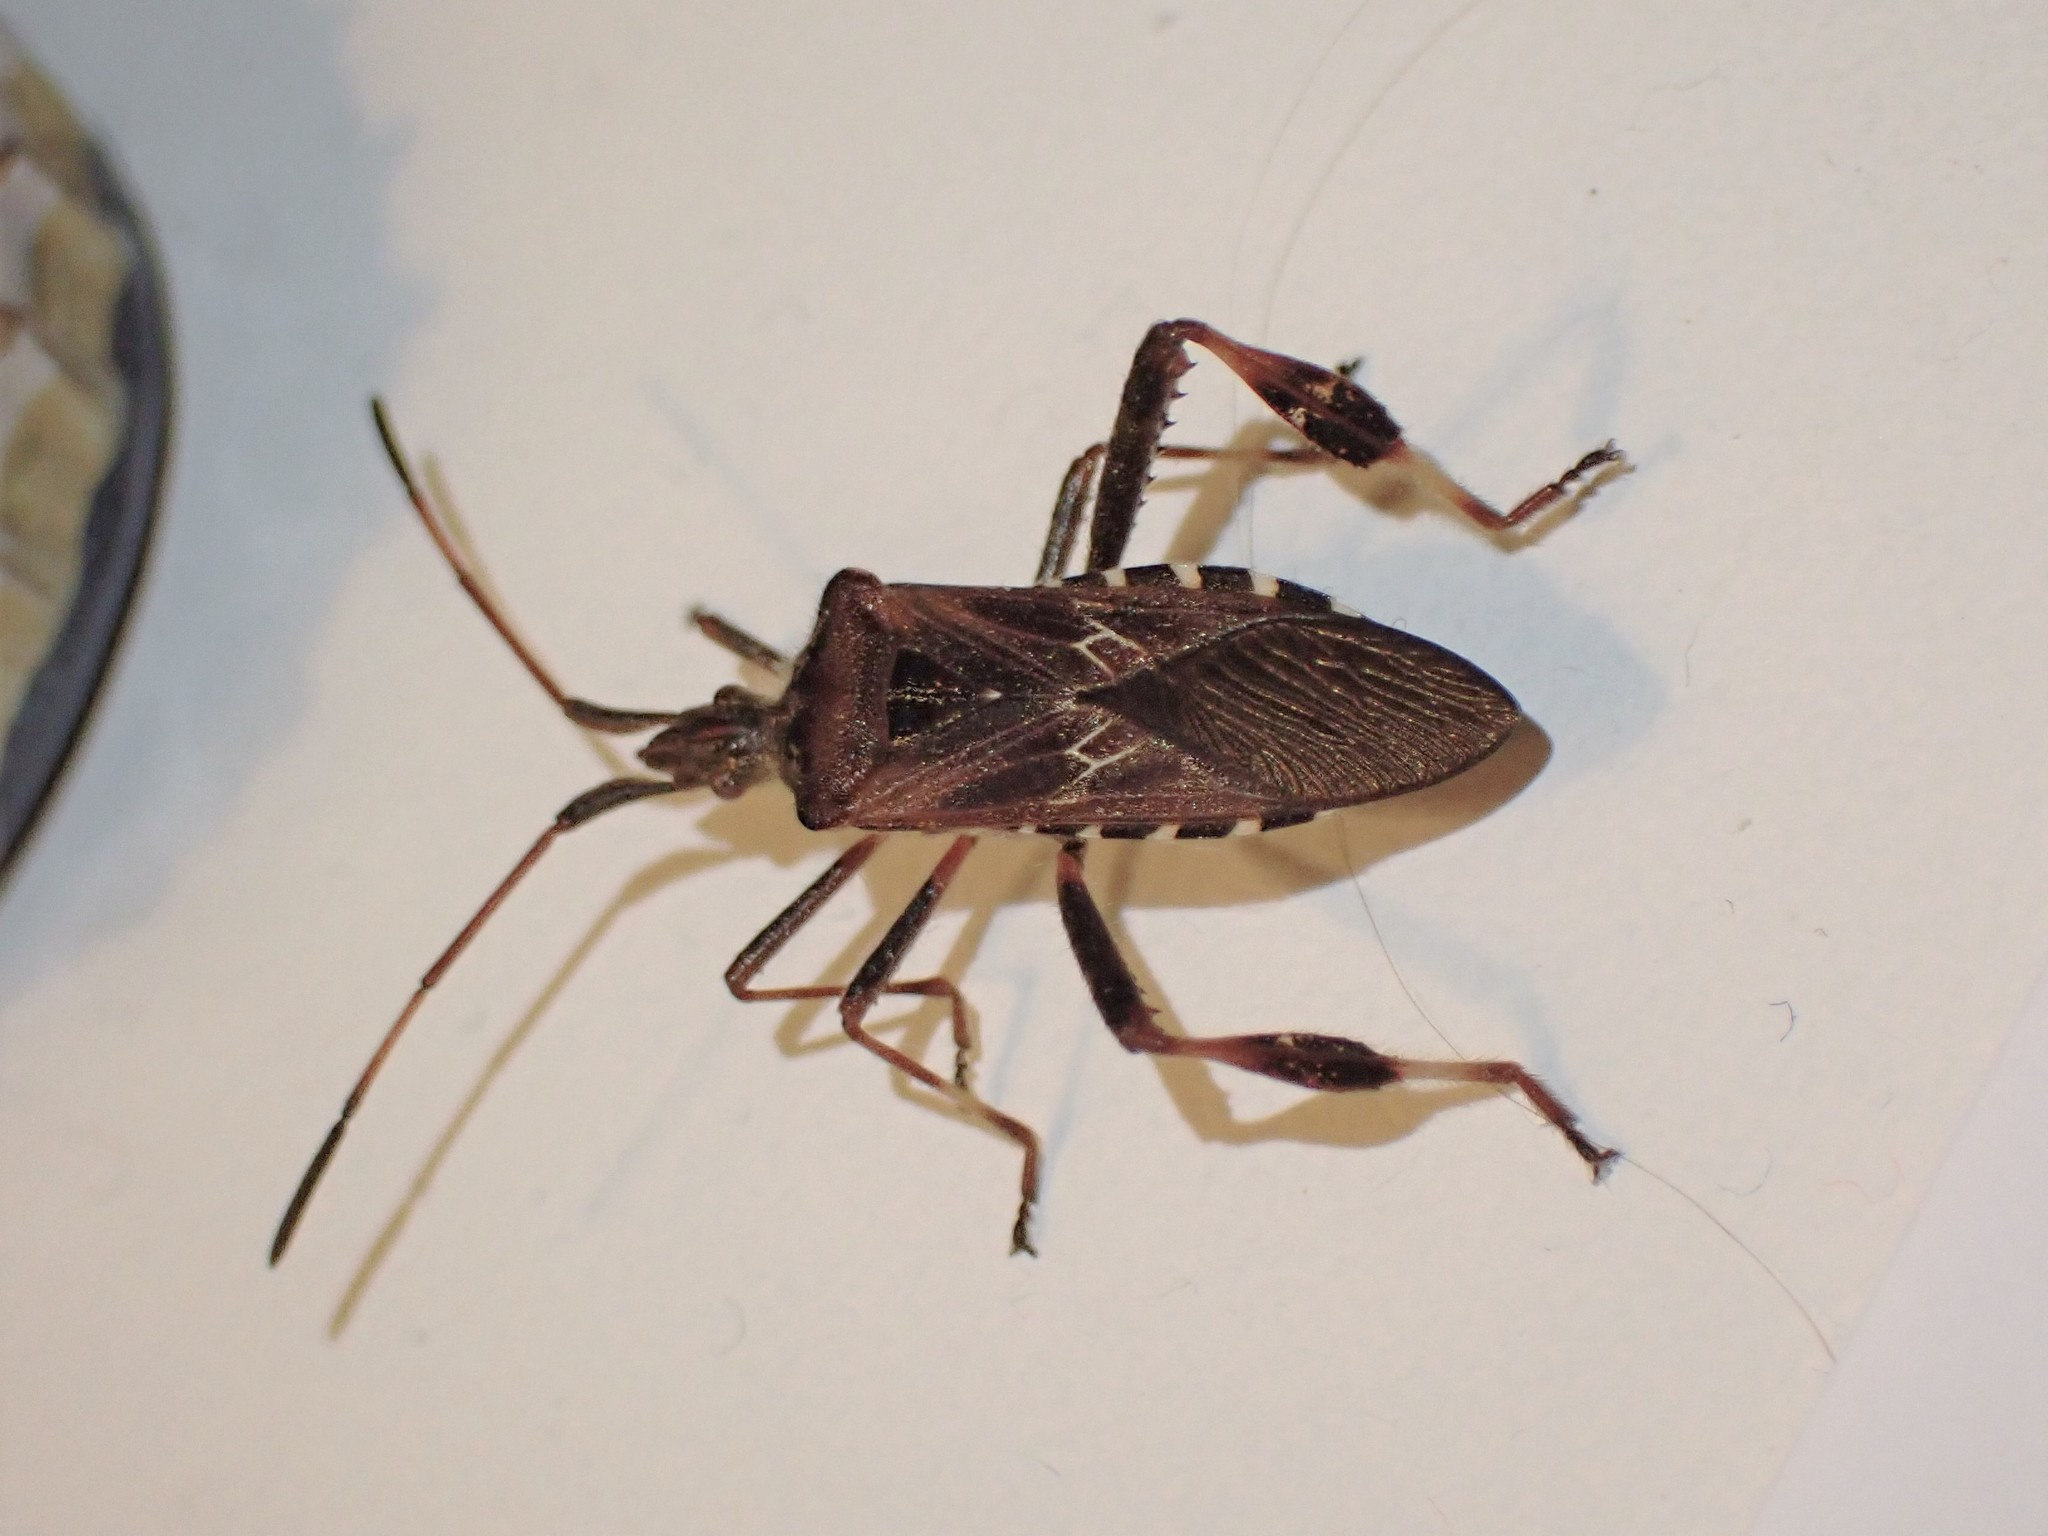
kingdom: Animalia
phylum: Arthropoda
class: Insecta
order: Hemiptera
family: Coreidae
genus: Leptoglossus
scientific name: Leptoglossus occidentalis
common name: Western conifer-seed bug
